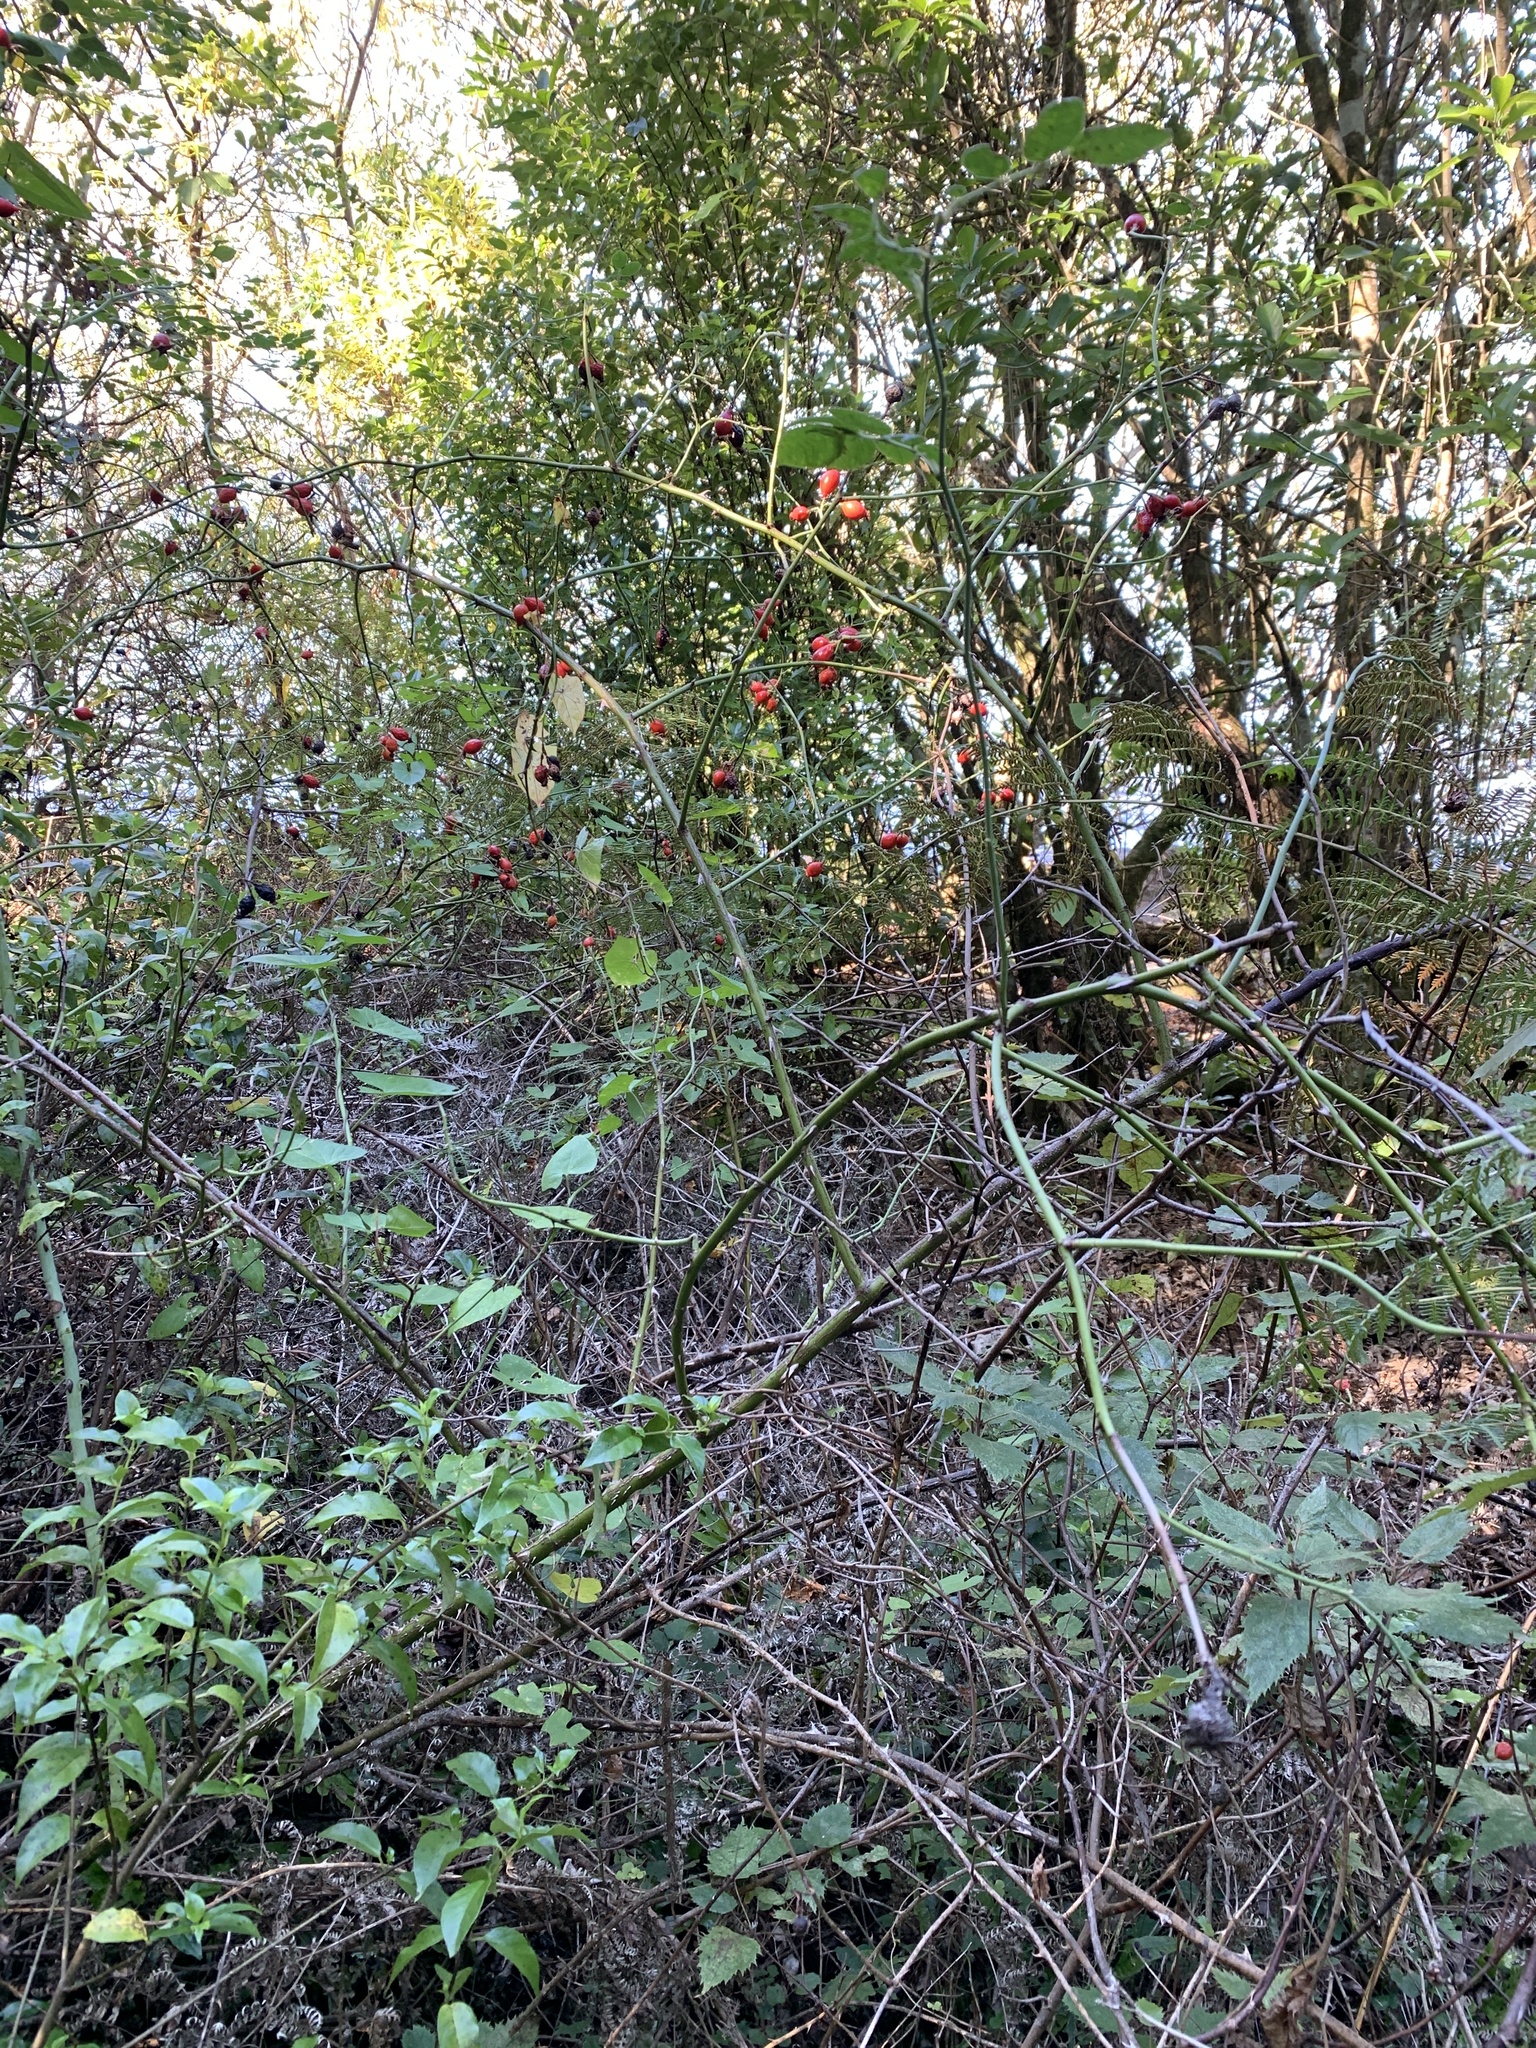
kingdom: Plantae
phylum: Tracheophyta
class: Magnoliopsida
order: Rosales
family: Rosaceae
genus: Rosa
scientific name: Rosa rubiginosa
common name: Sweet-briar
